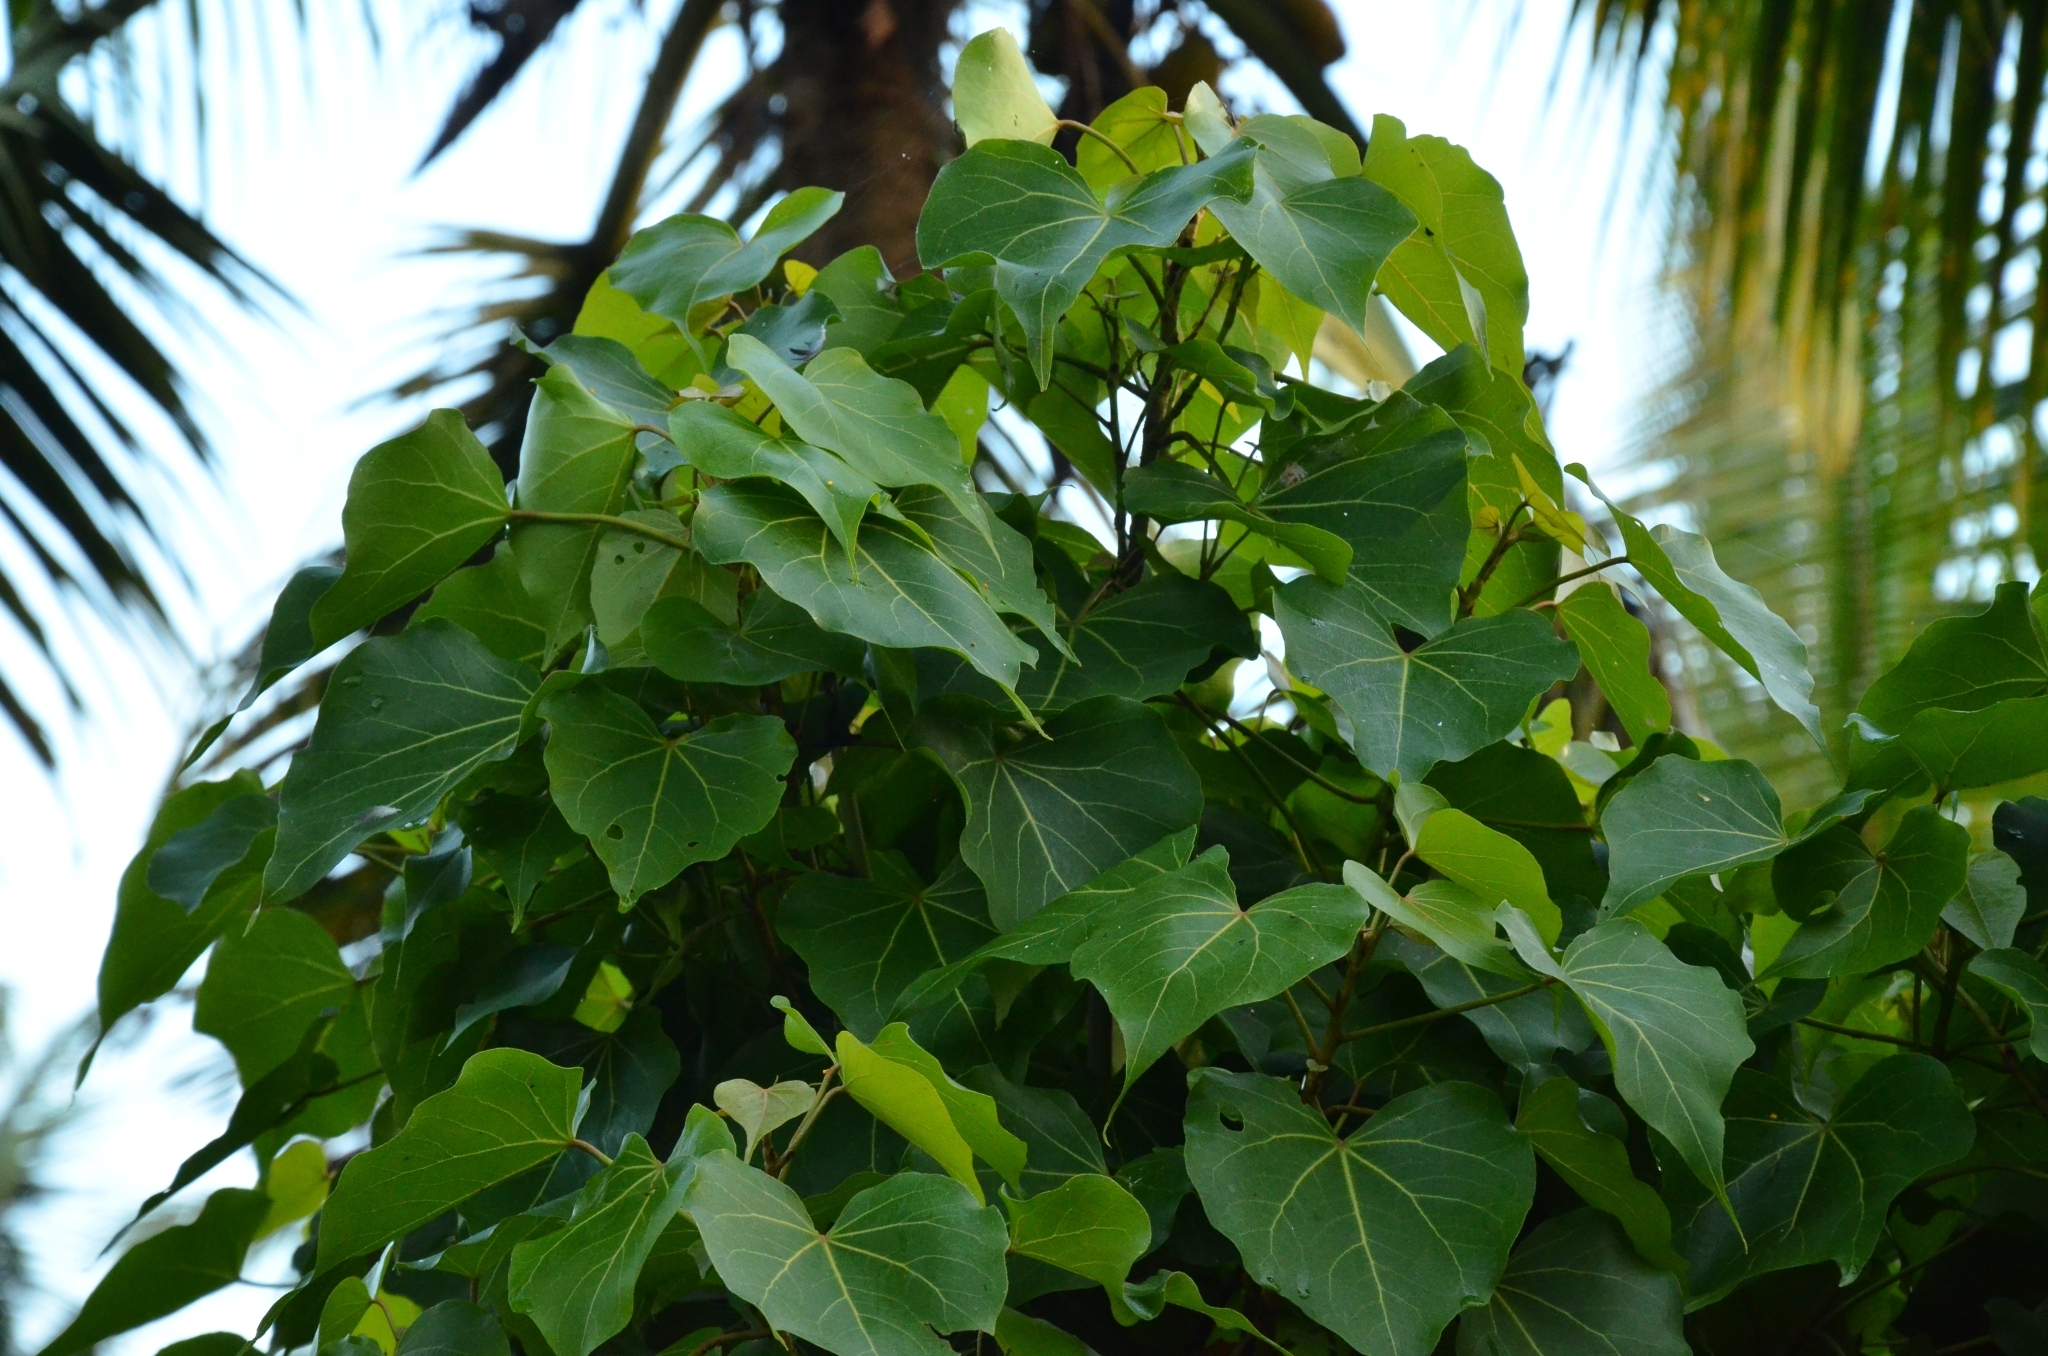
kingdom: Plantae
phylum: Tracheophyta
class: Magnoliopsida
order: Malvales
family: Malvaceae
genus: Thespesia
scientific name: Thespesia populnea
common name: Seaside mahoe
